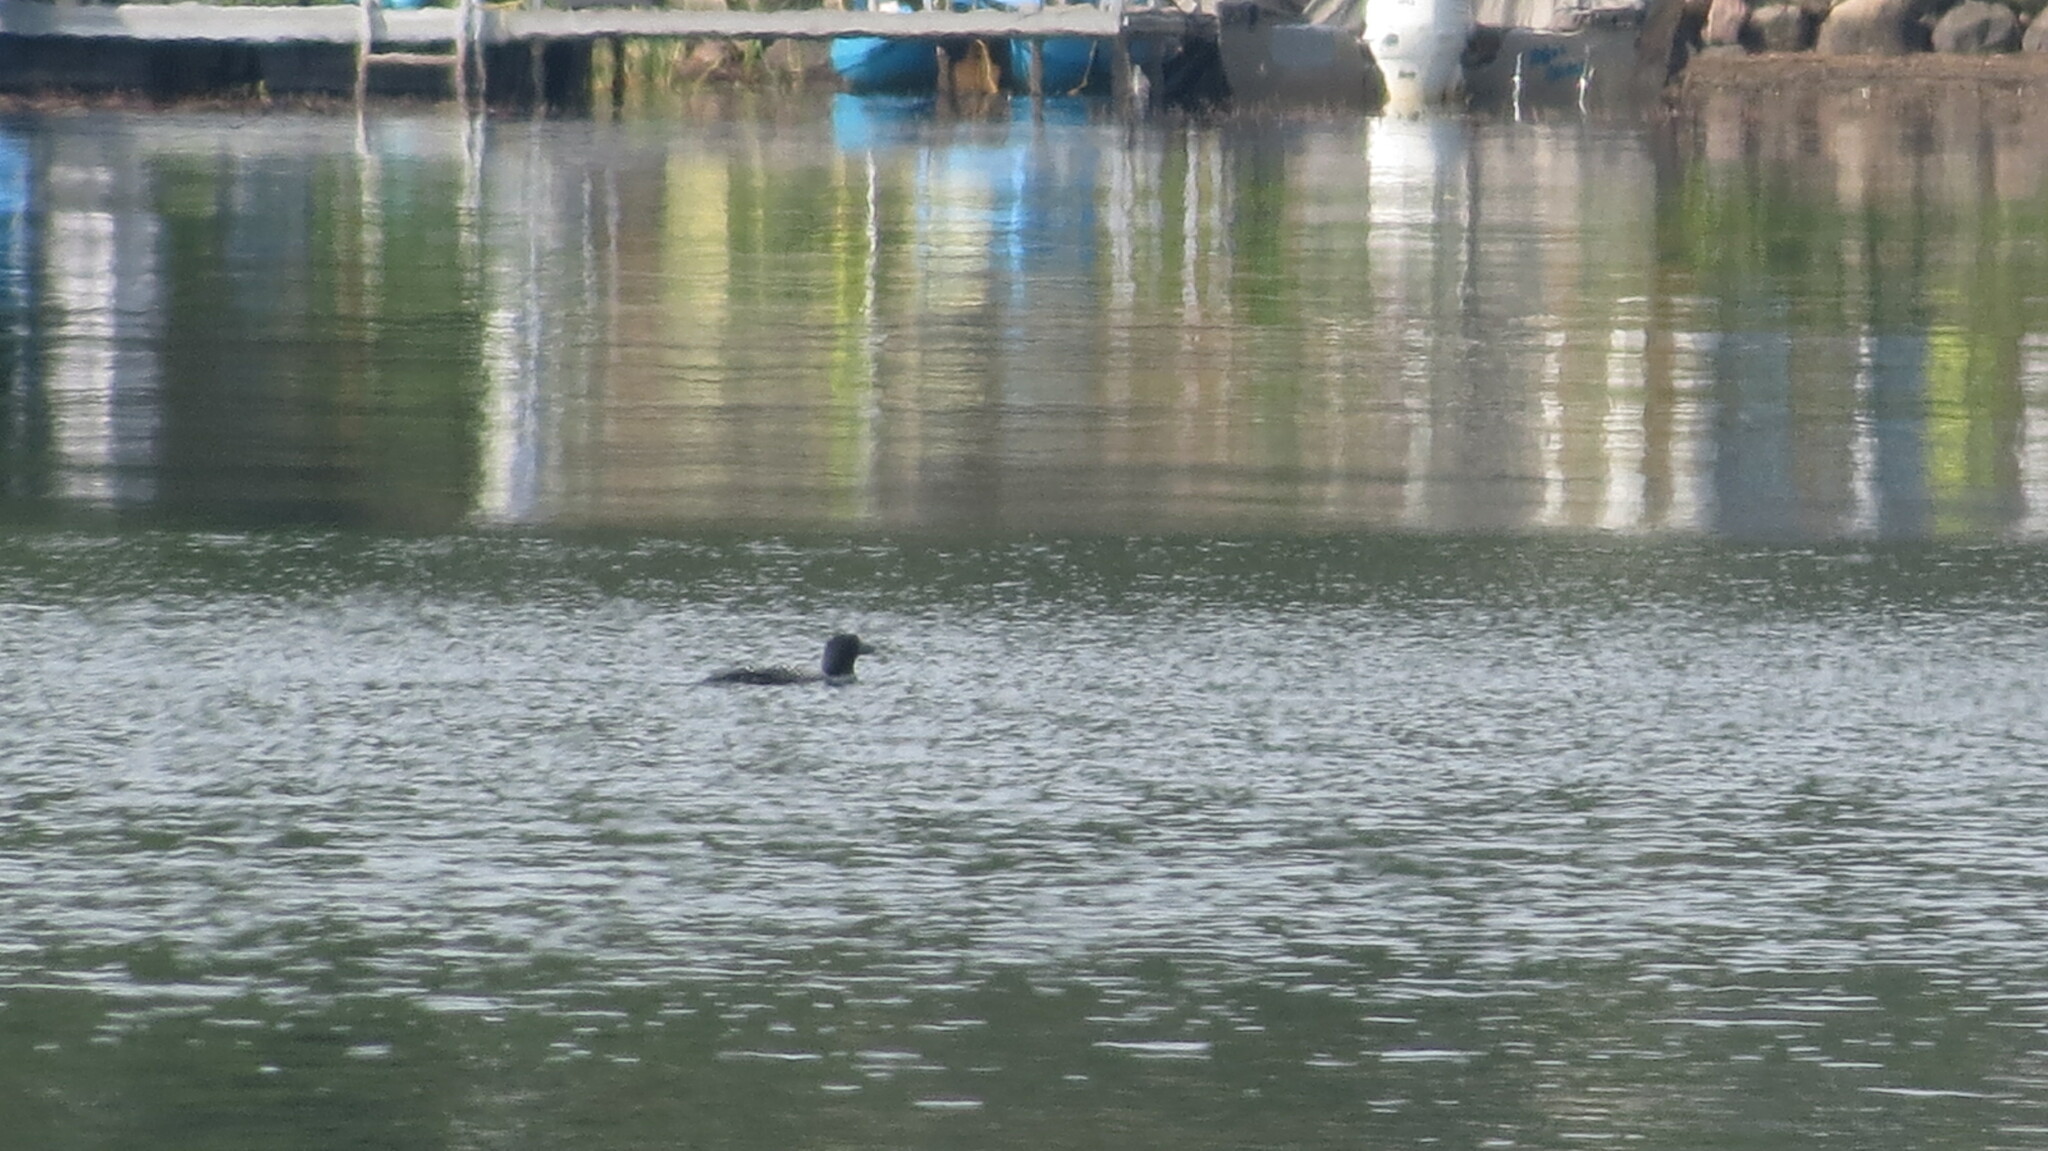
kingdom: Animalia
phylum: Chordata
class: Aves
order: Gaviiformes
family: Gaviidae
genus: Gavia
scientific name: Gavia immer
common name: Common loon
